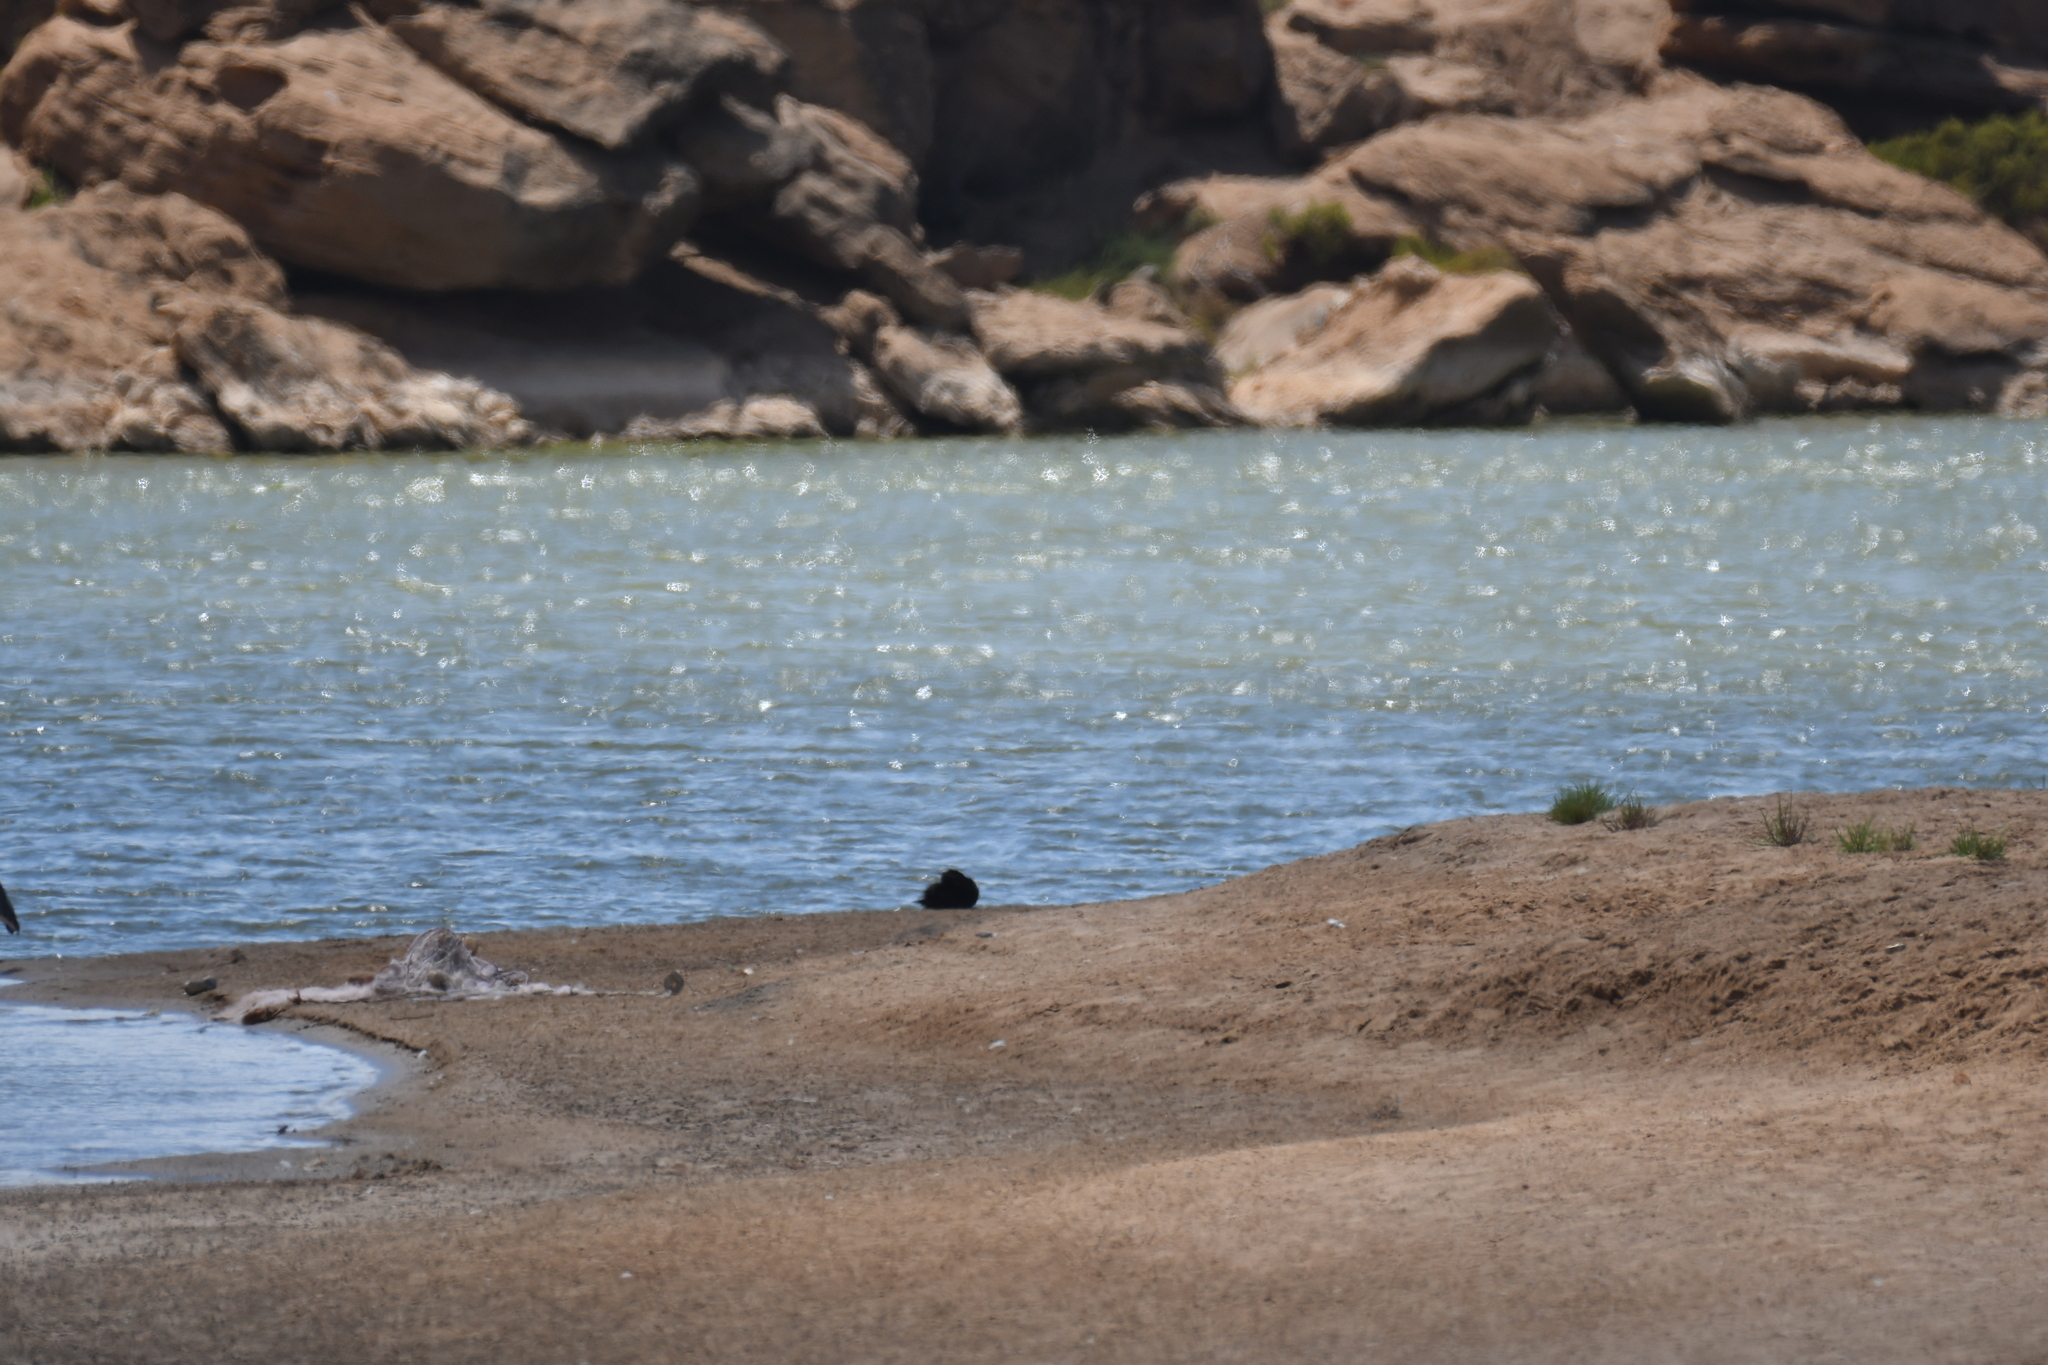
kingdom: Animalia
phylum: Chordata
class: Aves
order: Anseriformes
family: Anatidae
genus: Melanitta
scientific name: Melanitta nigra
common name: Common scoter
